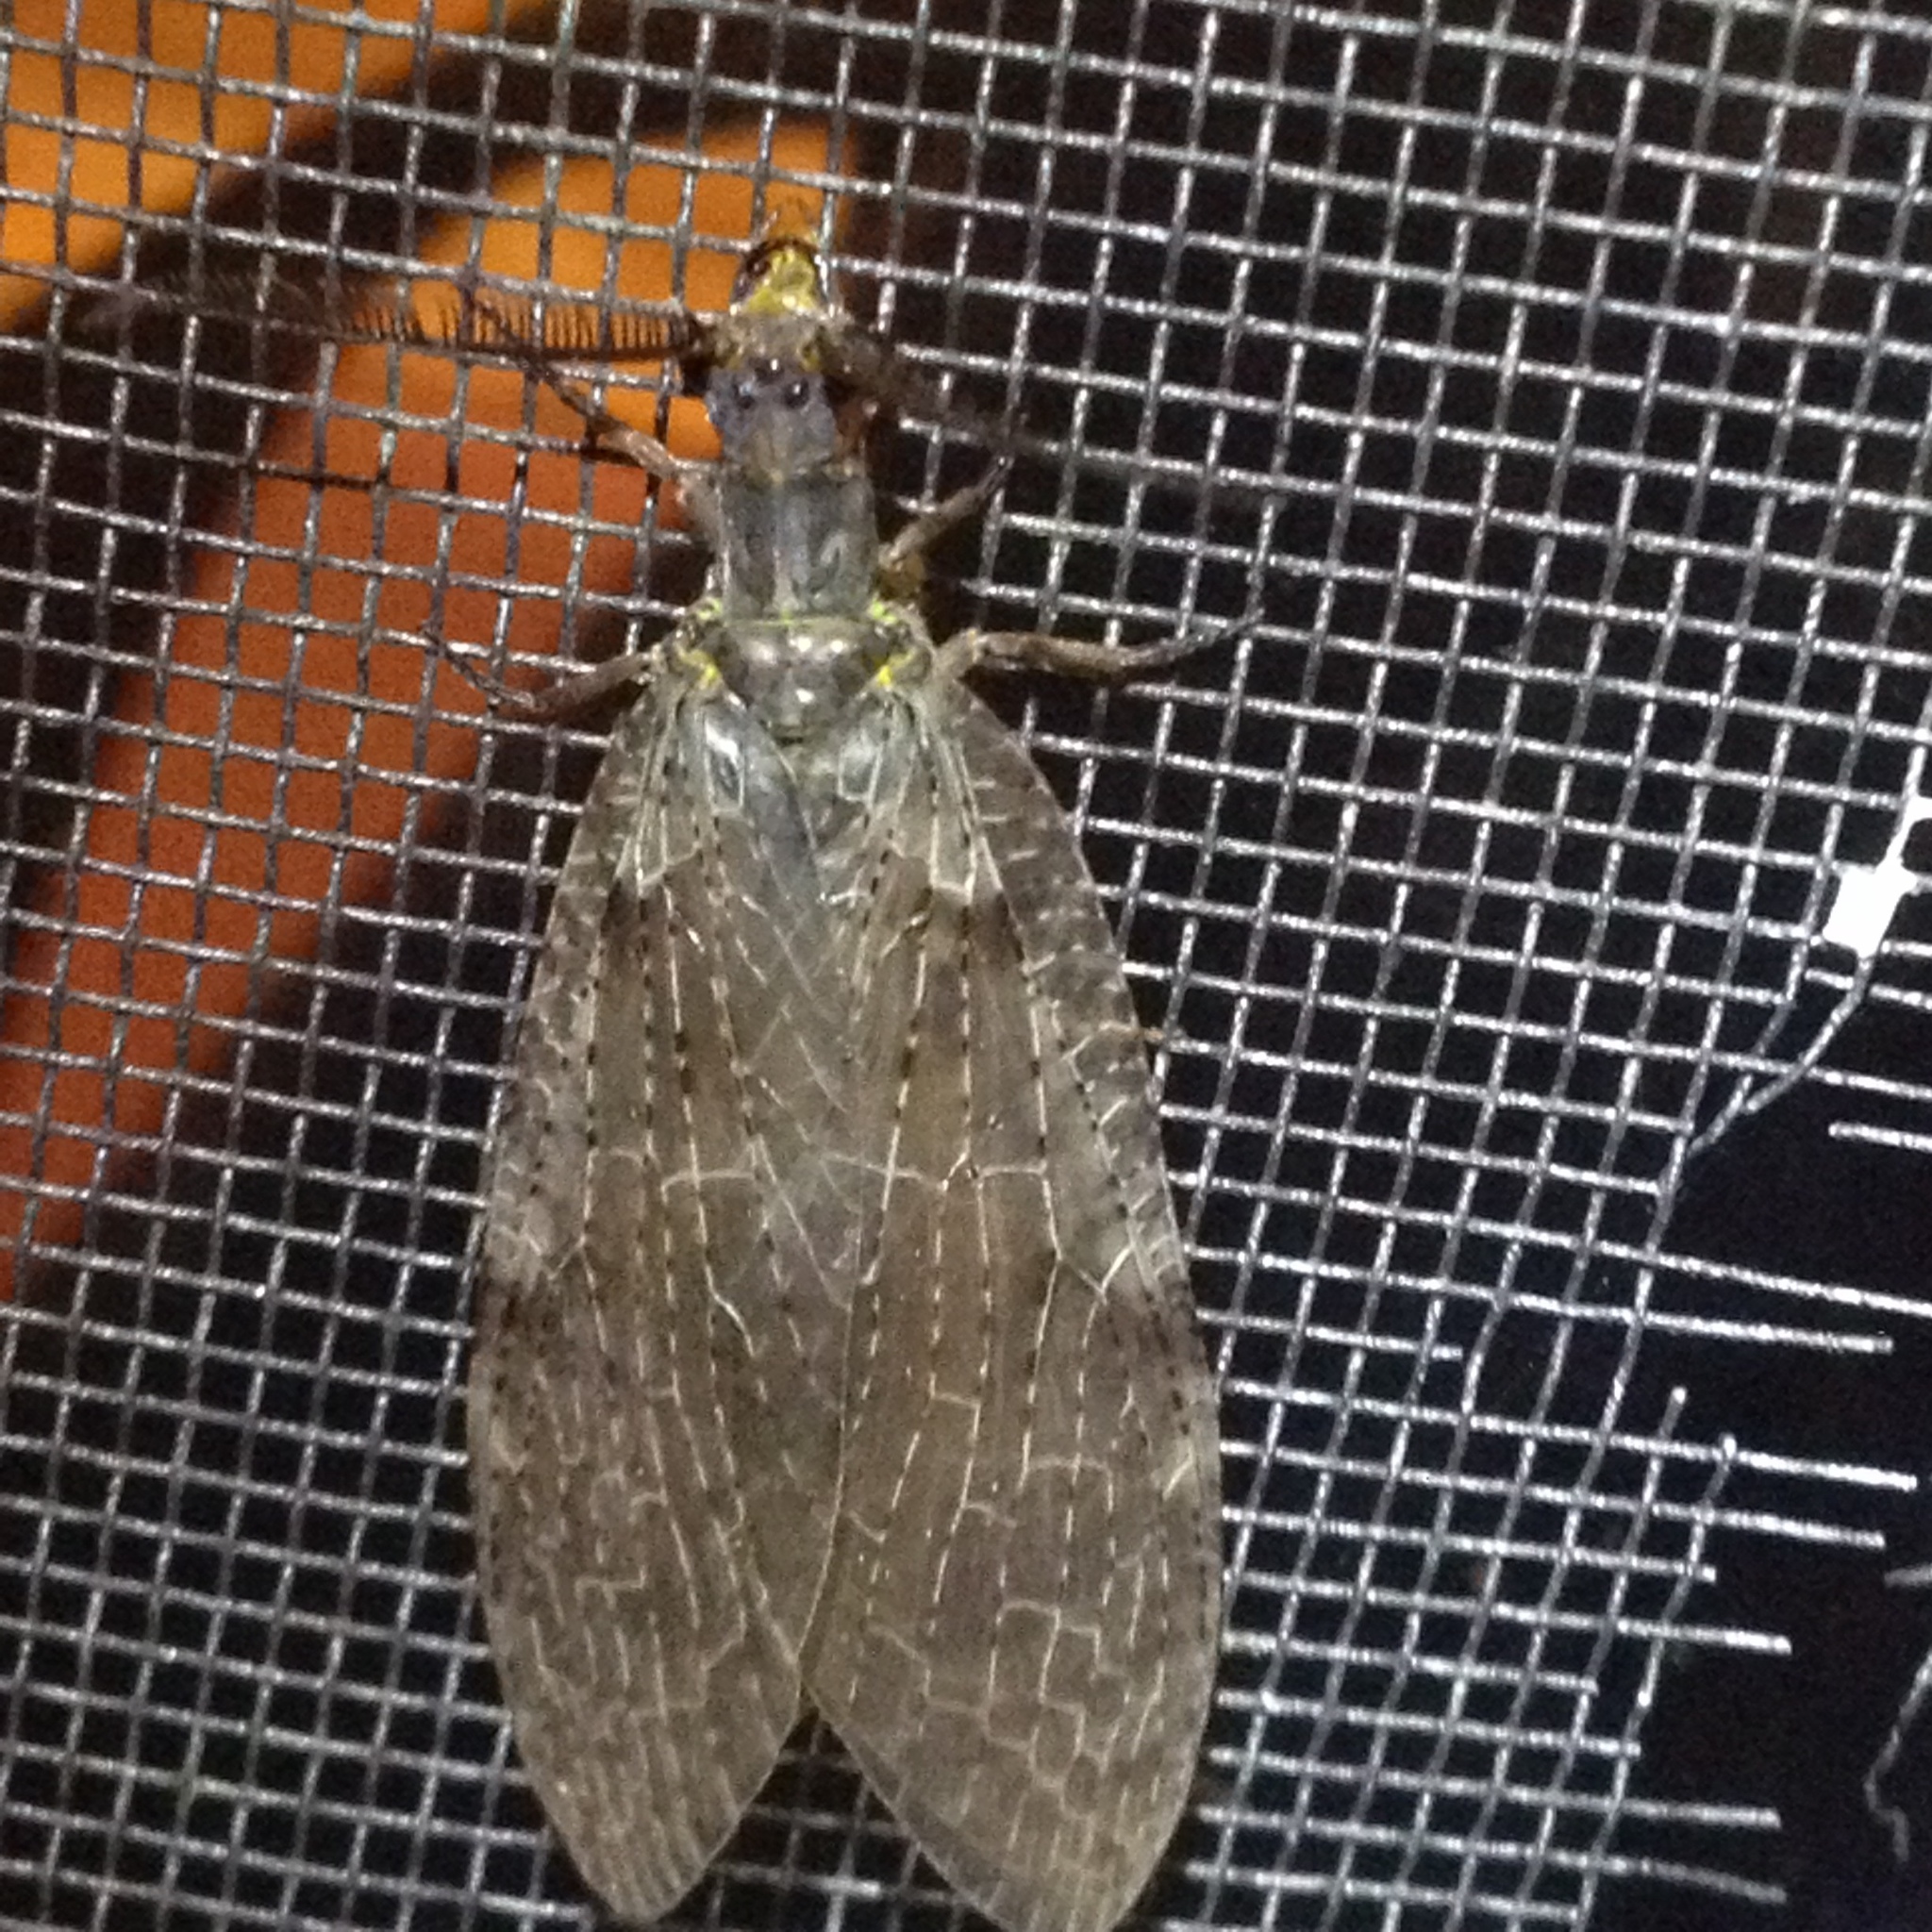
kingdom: Animalia
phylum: Arthropoda
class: Insecta
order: Megaloptera
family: Corydalidae
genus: Chauliodes
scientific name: Chauliodes pectinicornis
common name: Summer fishfly
